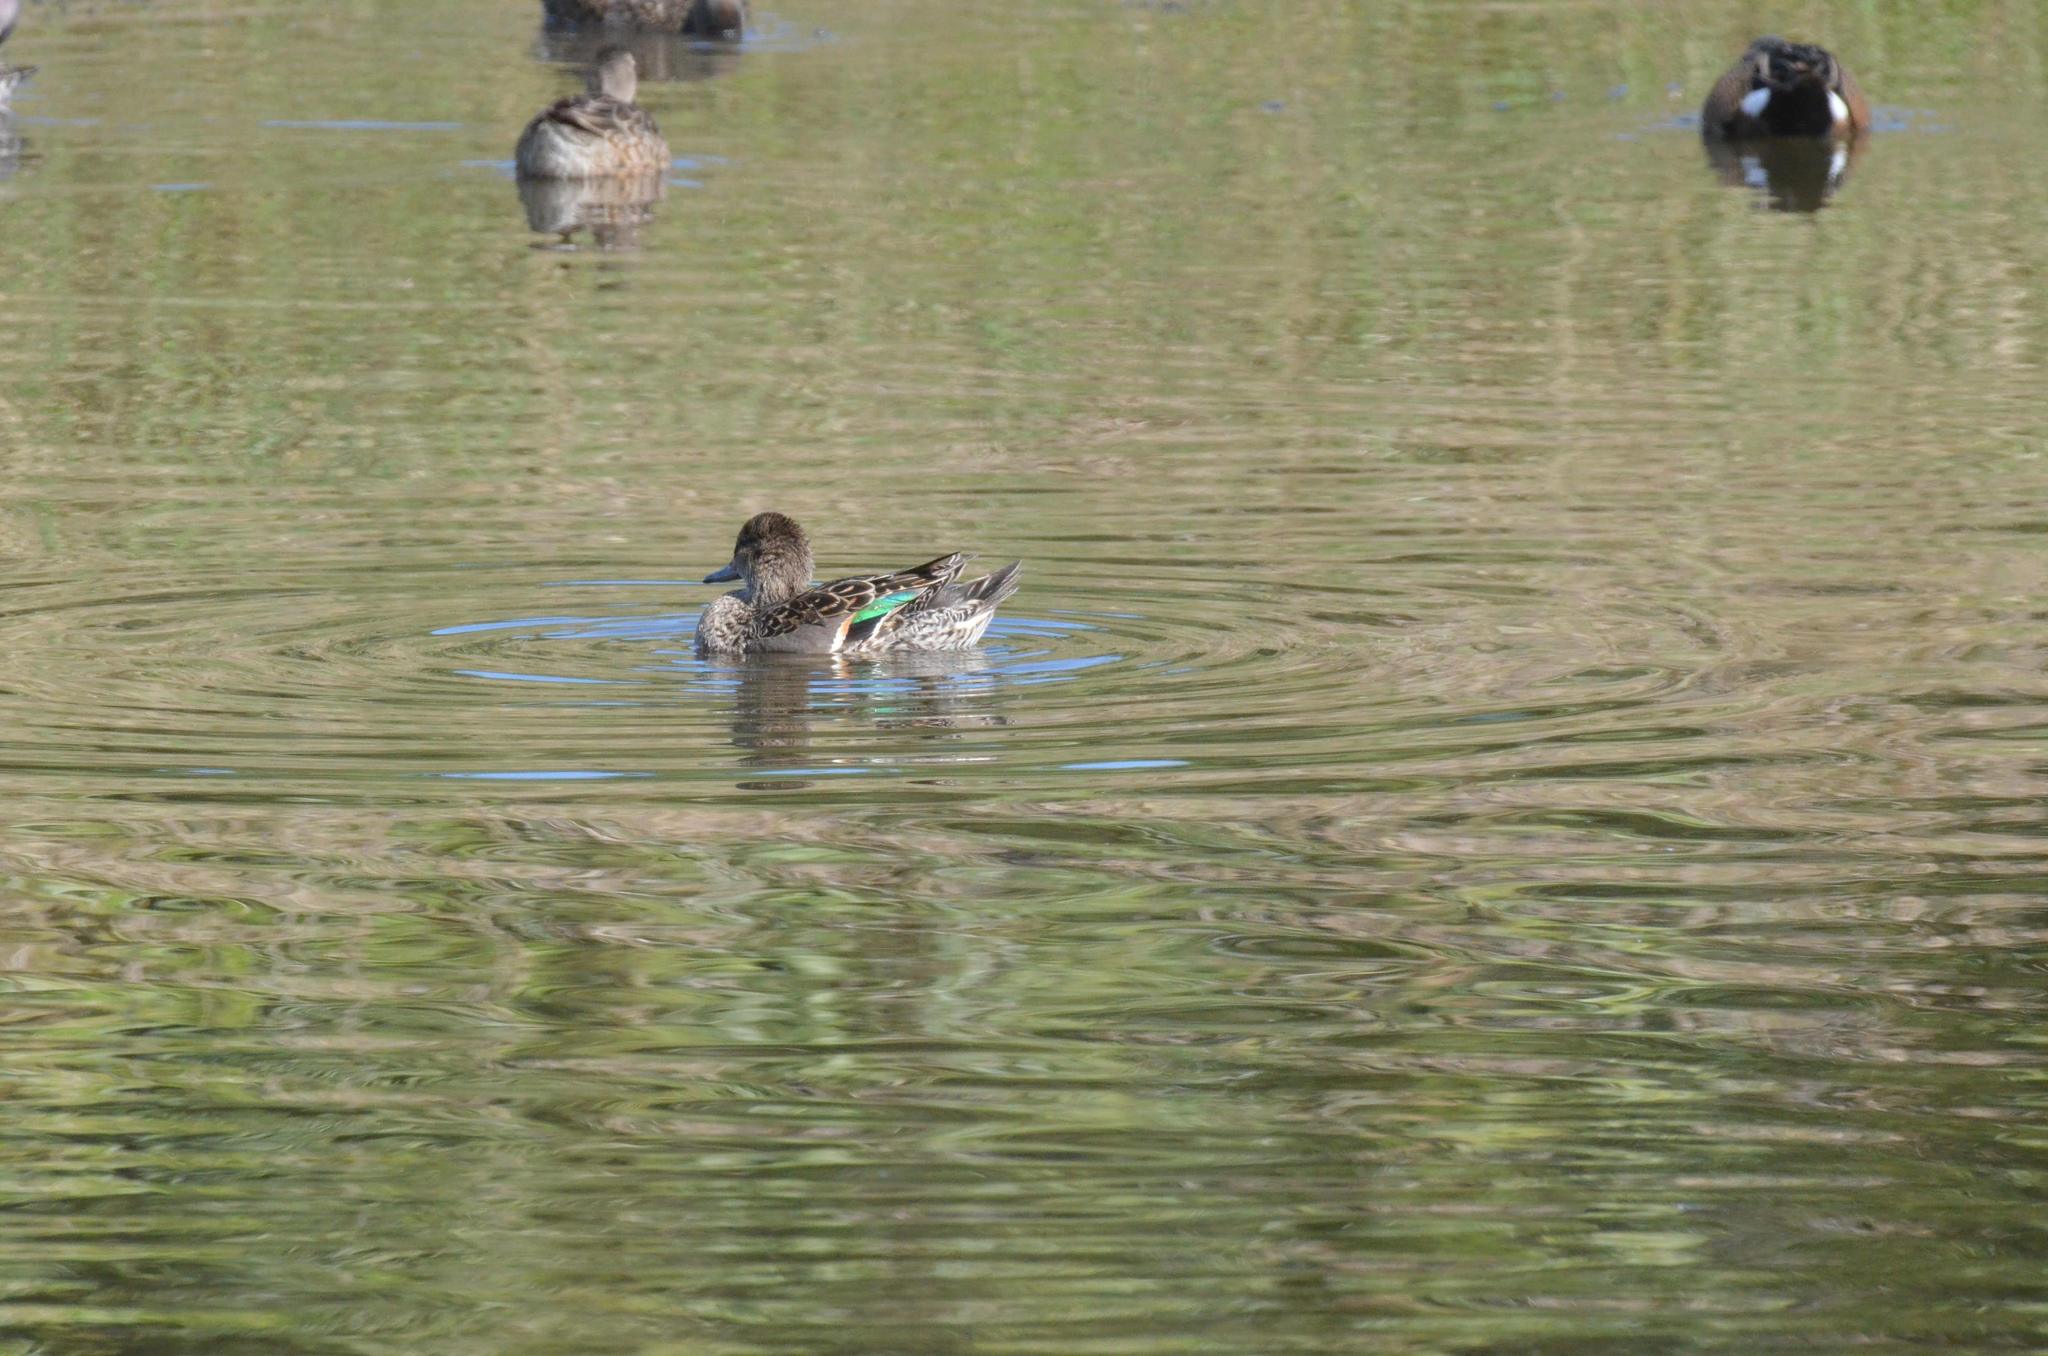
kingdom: Animalia
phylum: Chordata
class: Aves
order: Anseriformes
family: Anatidae
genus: Anas
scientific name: Anas crecca
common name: Eurasian teal
